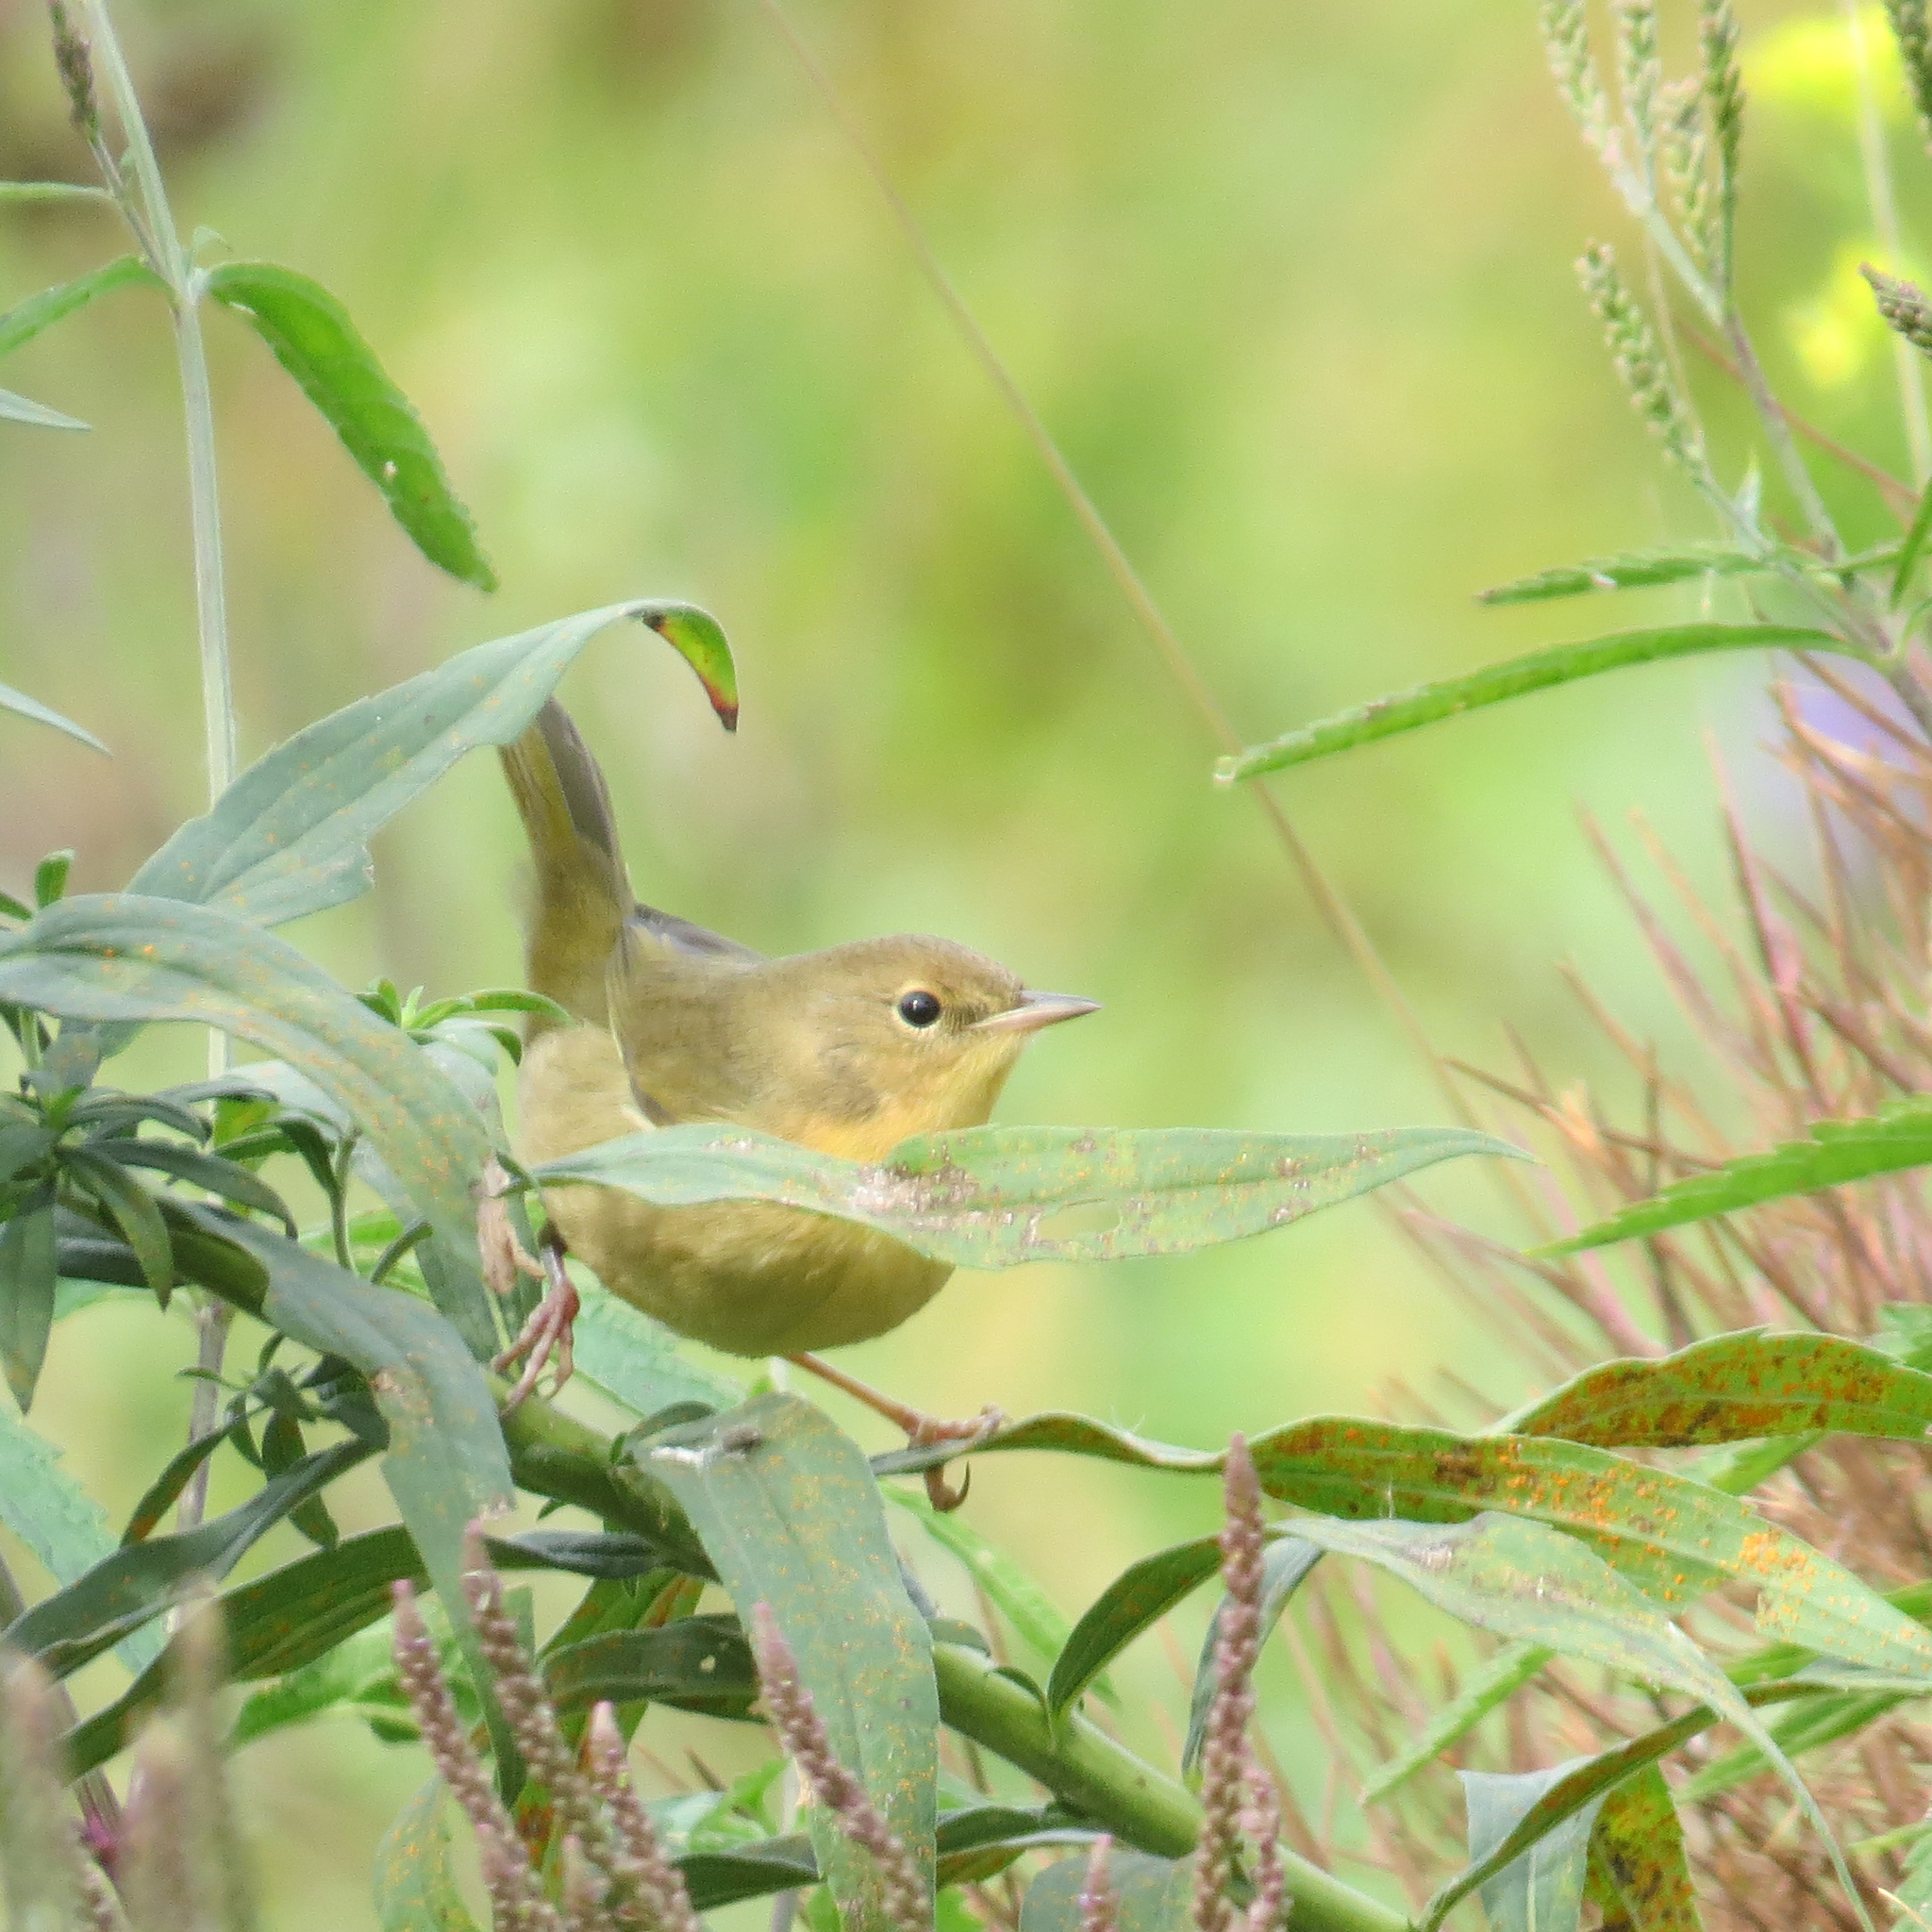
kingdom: Animalia
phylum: Chordata
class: Aves
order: Passeriformes
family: Parulidae
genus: Geothlypis
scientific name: Geothlypis trichas
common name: Common yellowthroat
